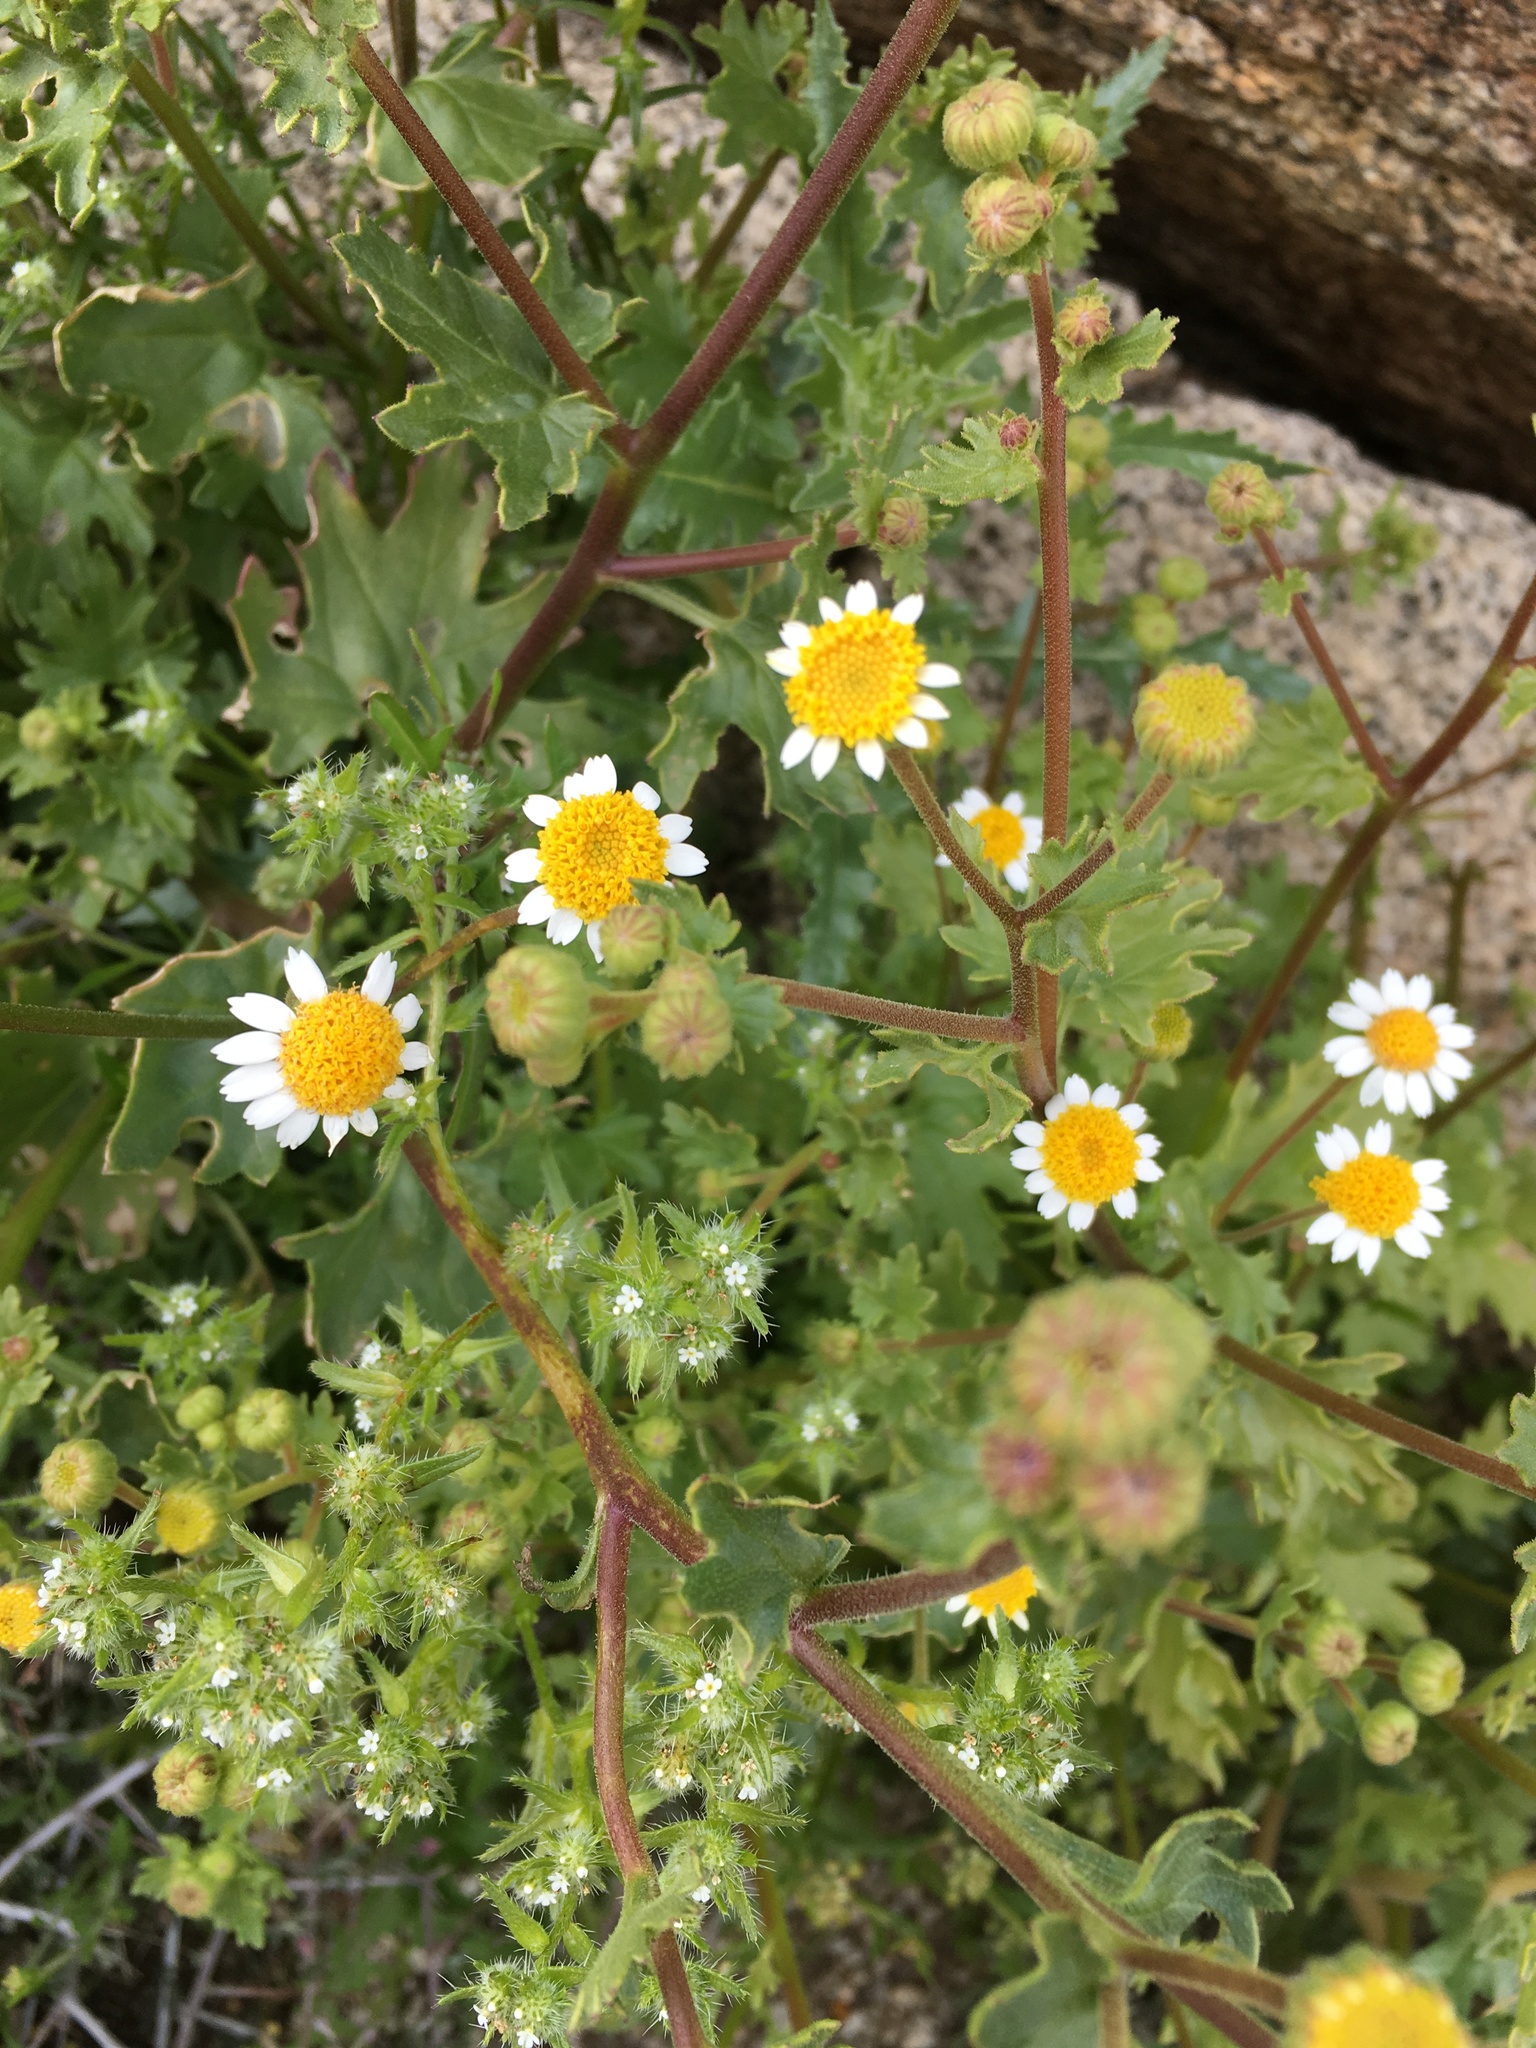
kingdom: Plantae
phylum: Tracheophyta
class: Magnoliopsida
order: Asterales
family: Asteraceae
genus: Laphamia
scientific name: Laphamia emoryi
